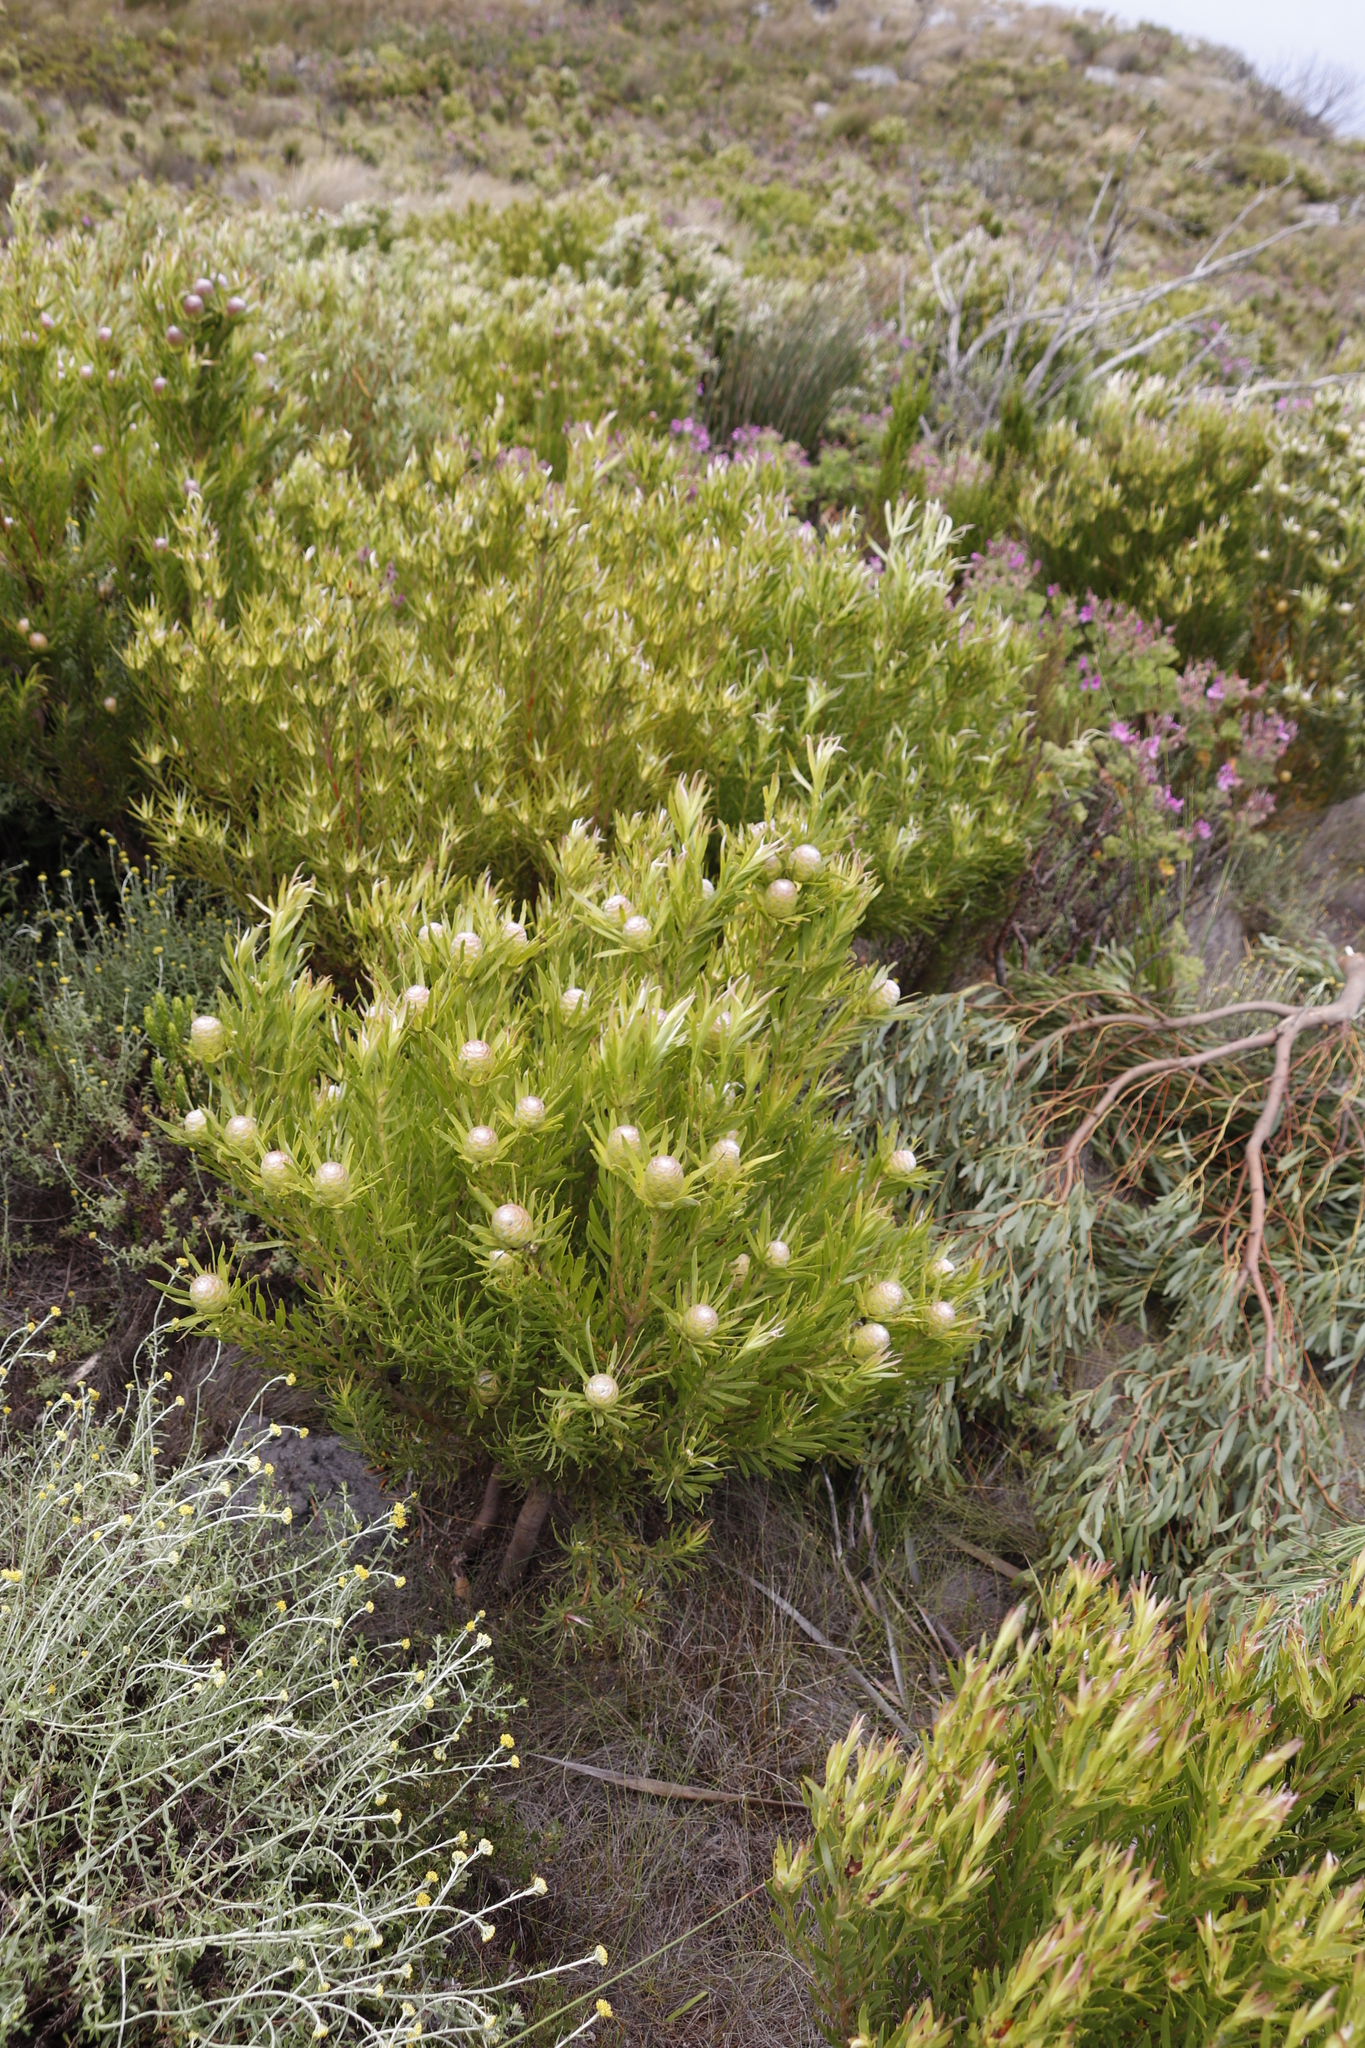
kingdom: Plantae
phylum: Tracheophyta
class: Magnoliopsida
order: Proteales
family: Proteaceae
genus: Leucadendron
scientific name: Leucadendron xanthoconus
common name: Sickle-leaf conebush
